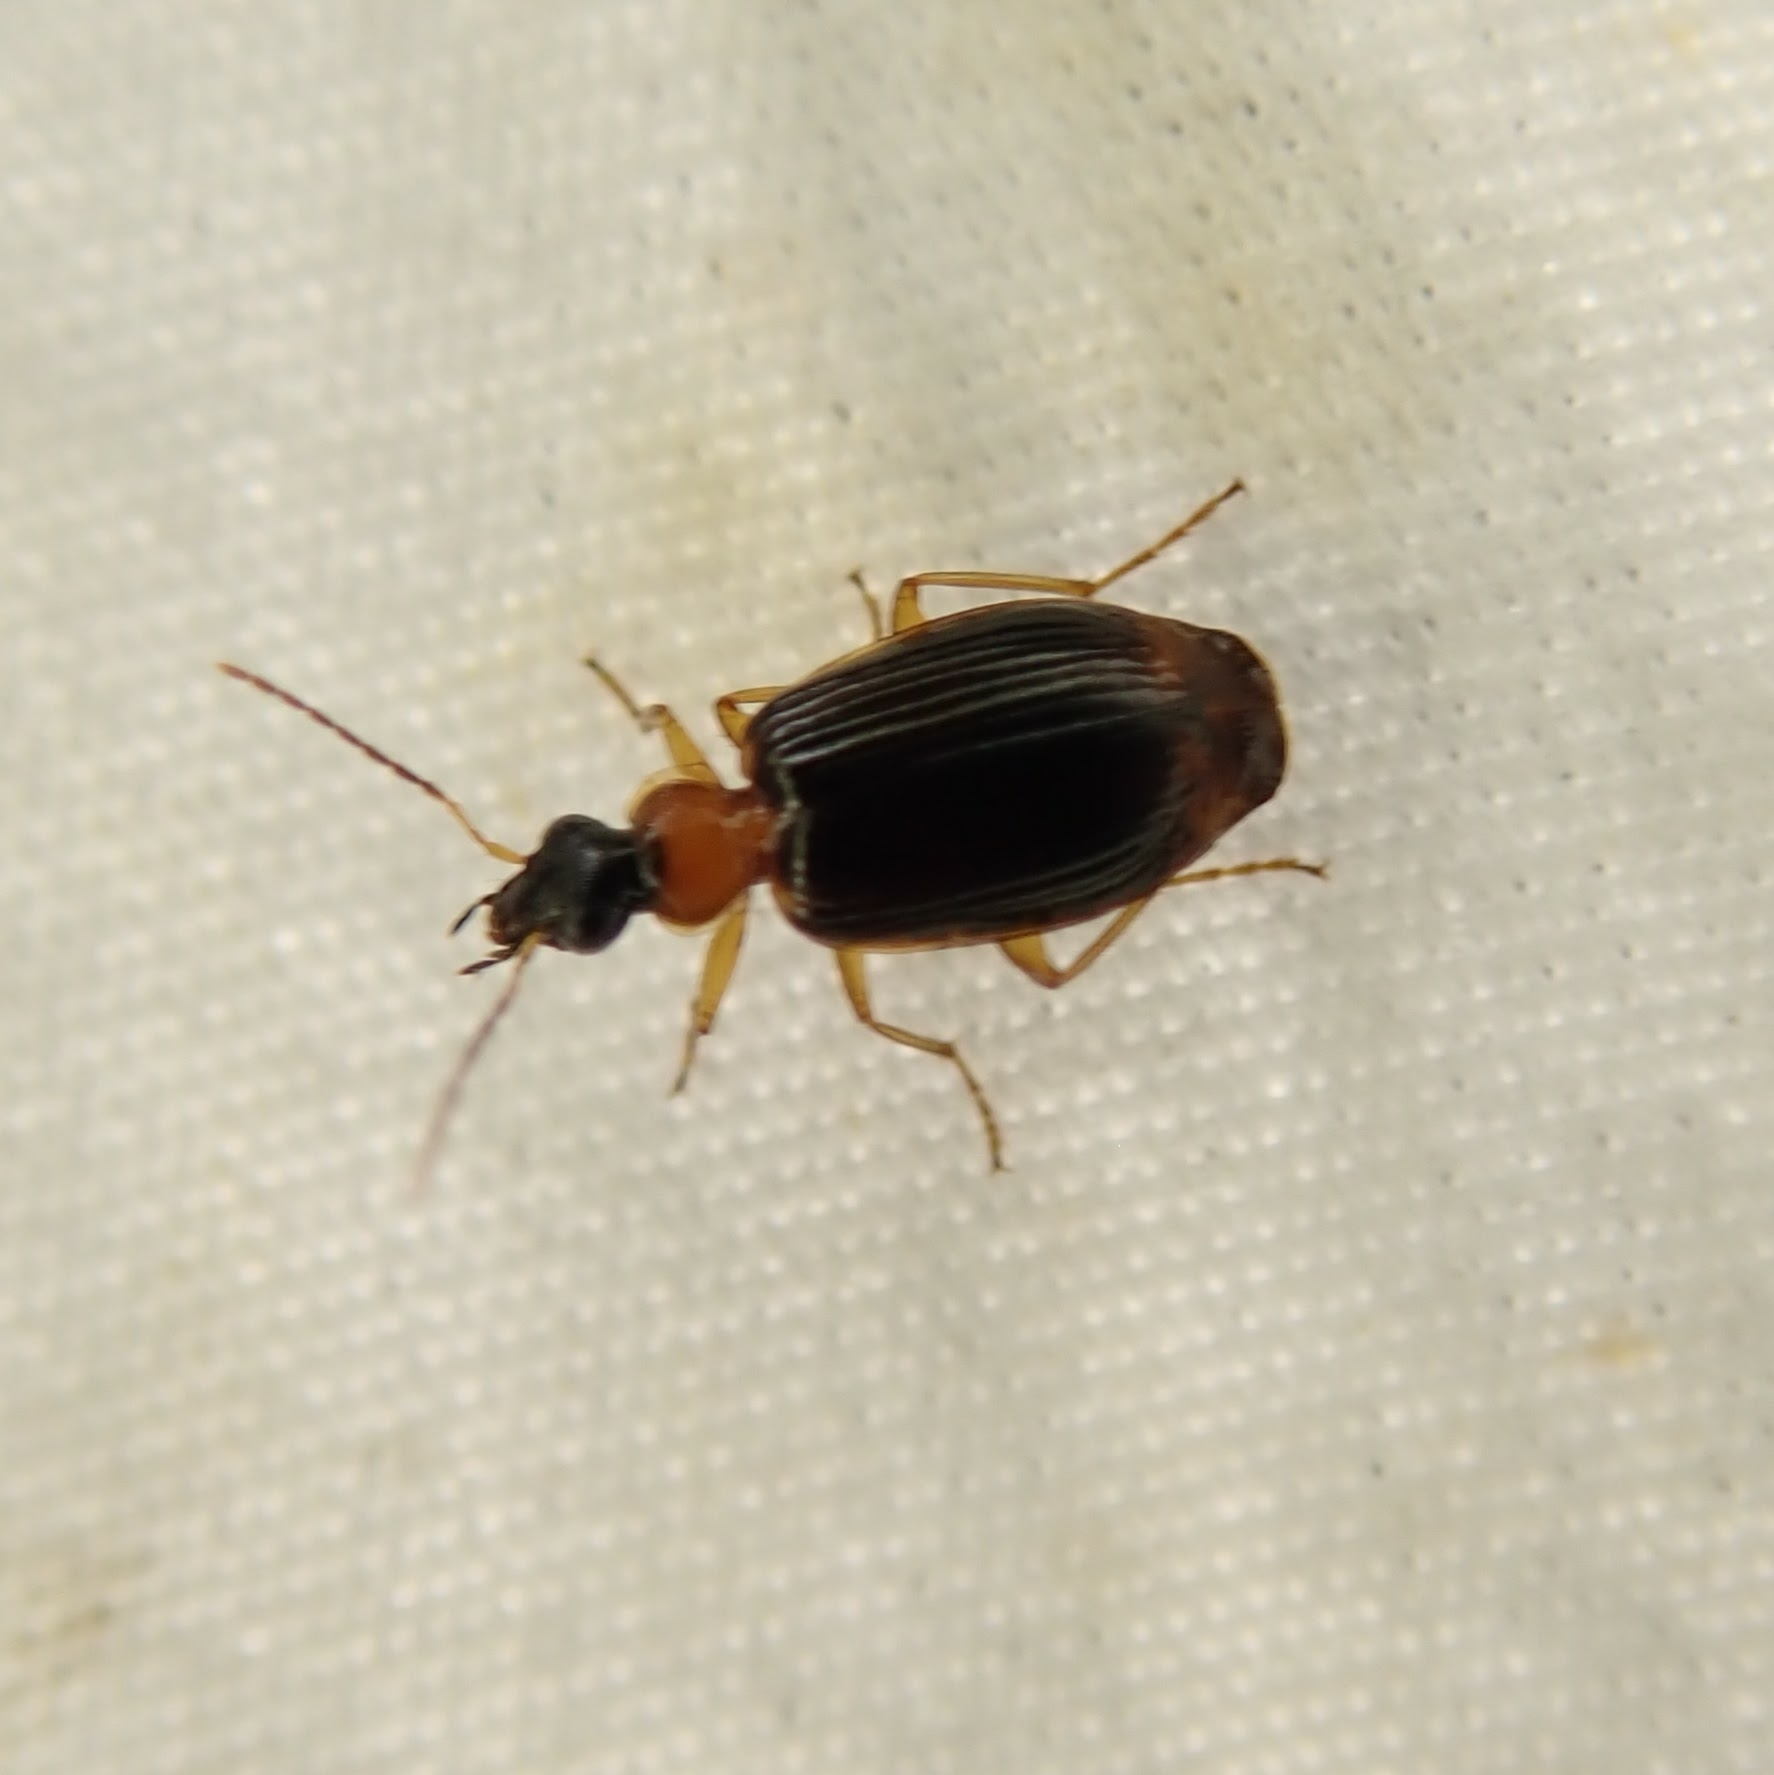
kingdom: Animalia
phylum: Arthropoda
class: Insecta
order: Coleoptera
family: Carabidae
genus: Lebia
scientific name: Lebia analis
